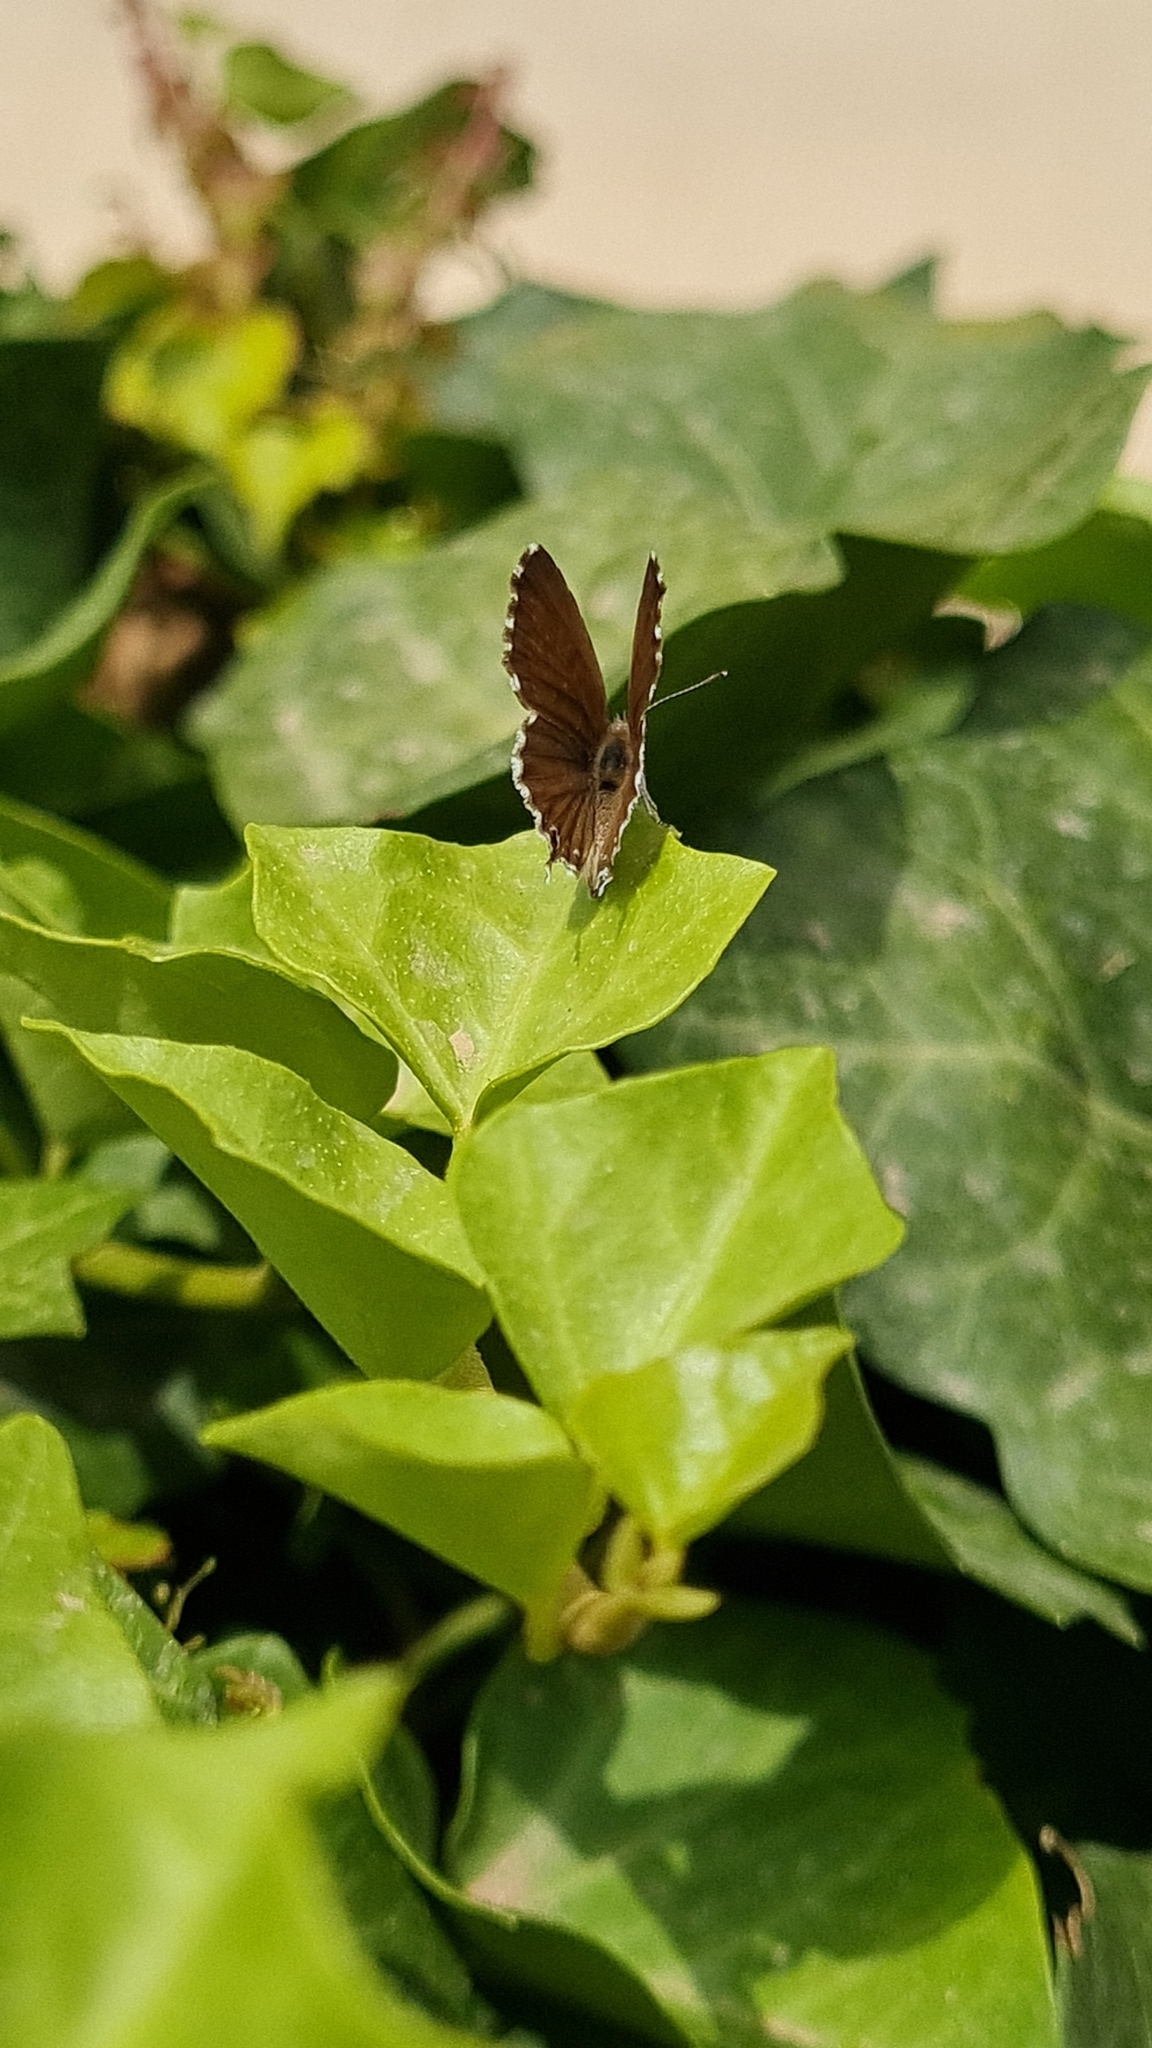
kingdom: Animalia
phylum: Arthropoda
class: Insecta
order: Lepidoptera
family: Lycaenidae
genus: Cacyreus
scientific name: Cacyreus marshalli
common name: Geranium bronze
